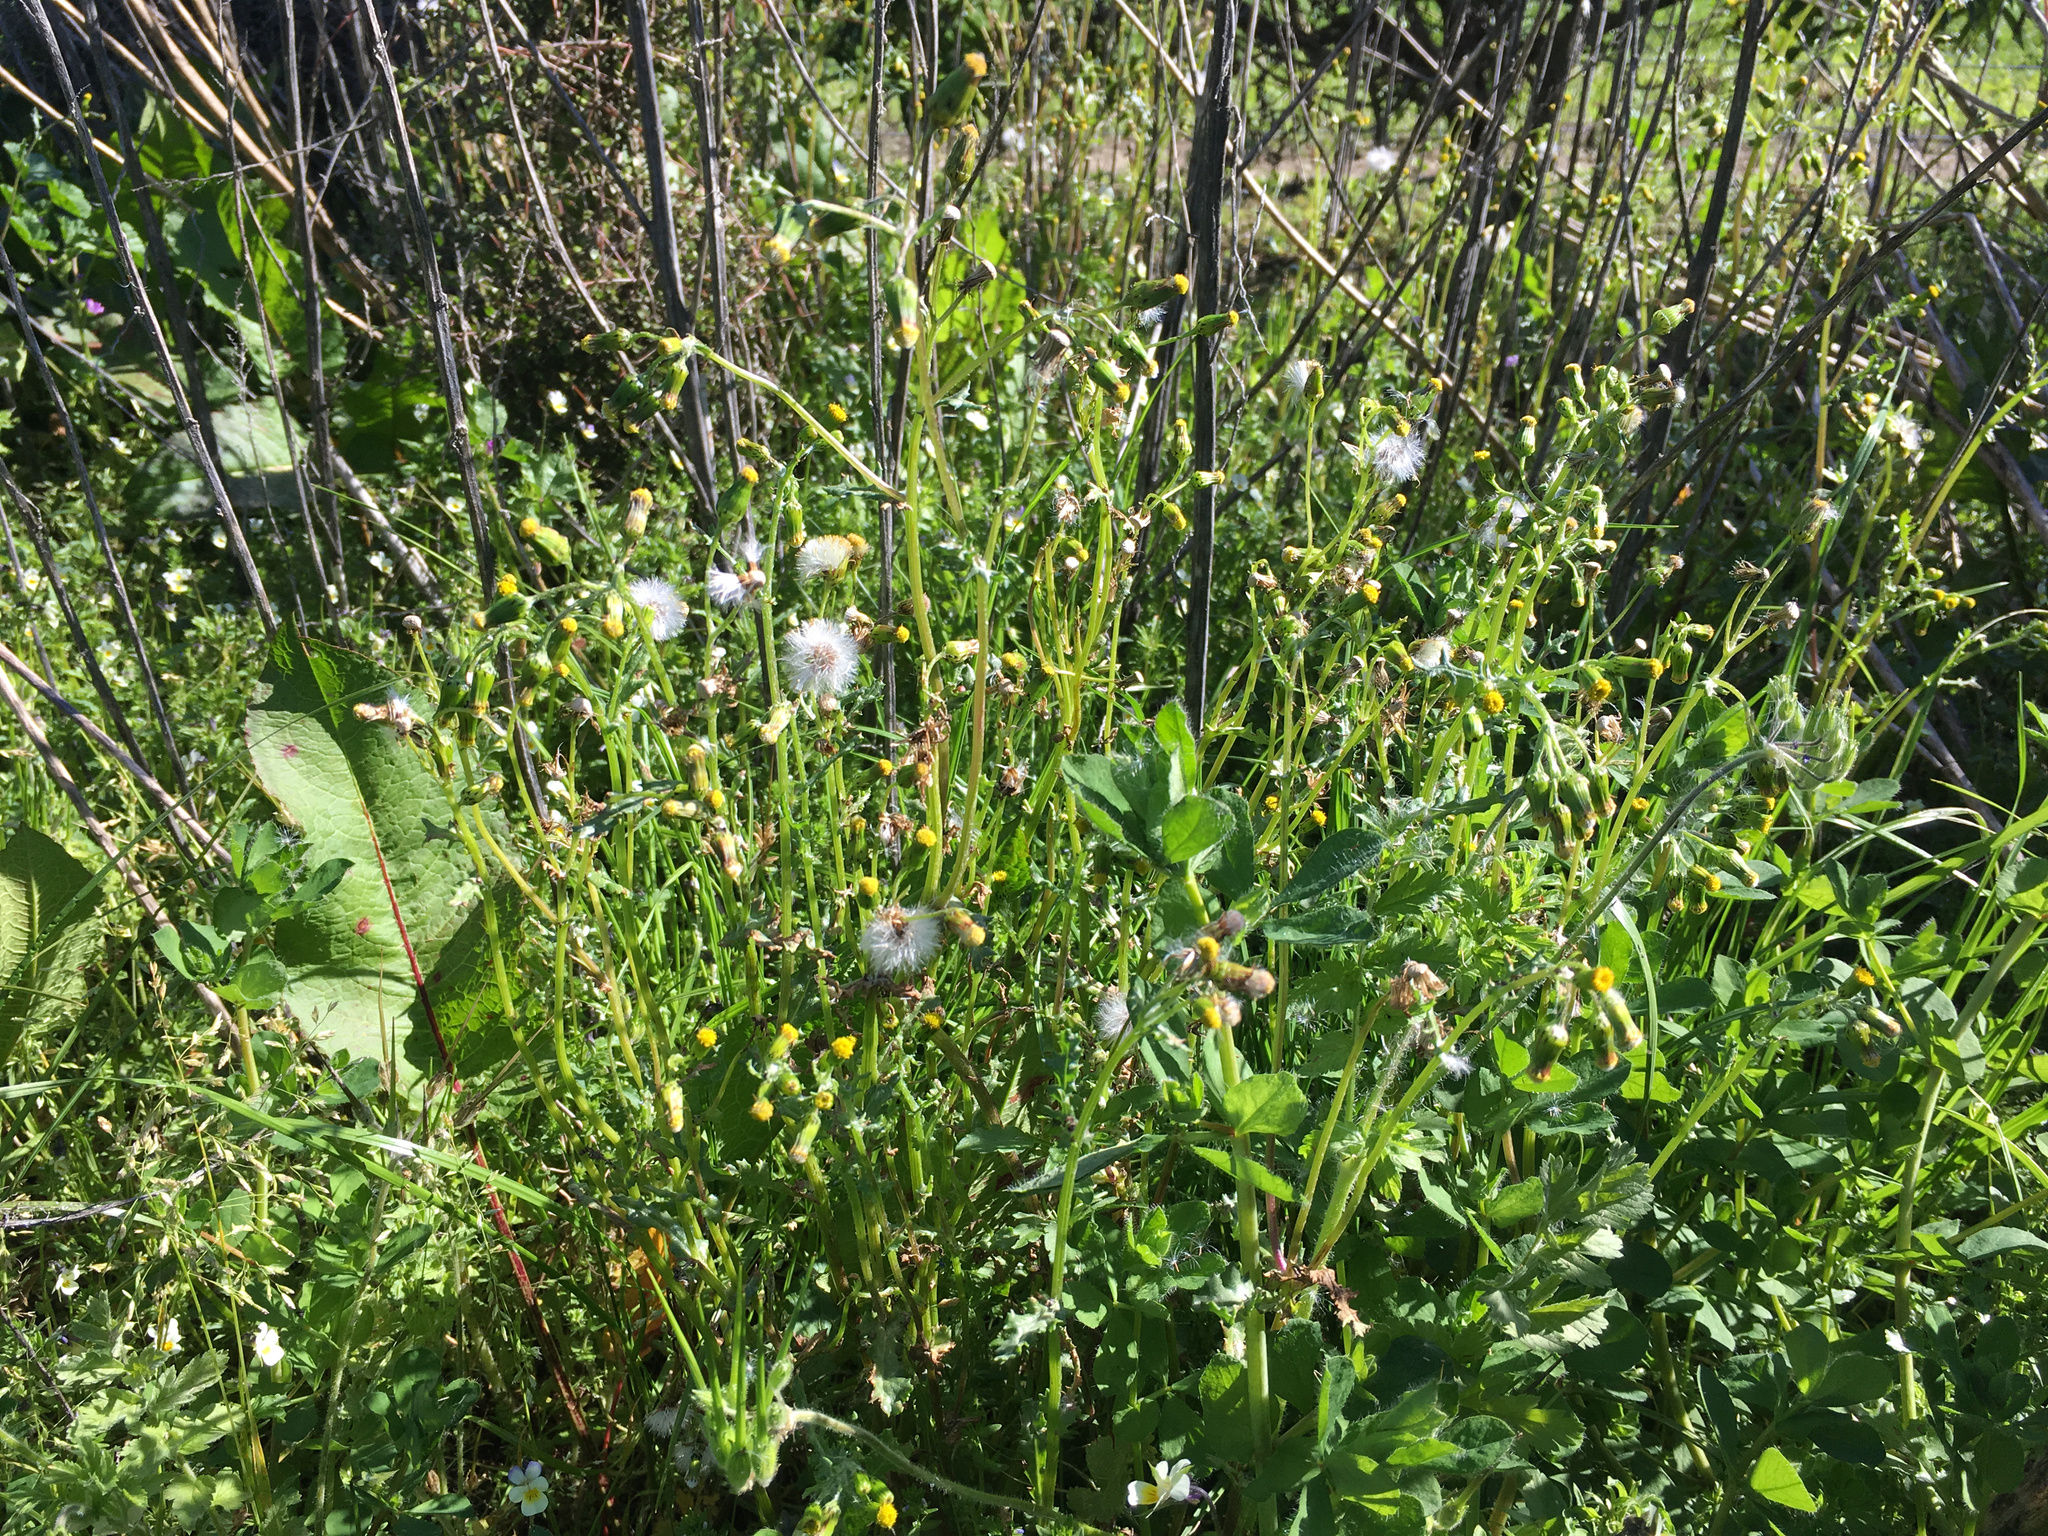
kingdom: Plantae
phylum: Tracheophyta
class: Magnoliopsida
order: Asterales
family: Asteraceae
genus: Senecio
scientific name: Senecio vulgaris
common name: Old-man-in-the-spring
